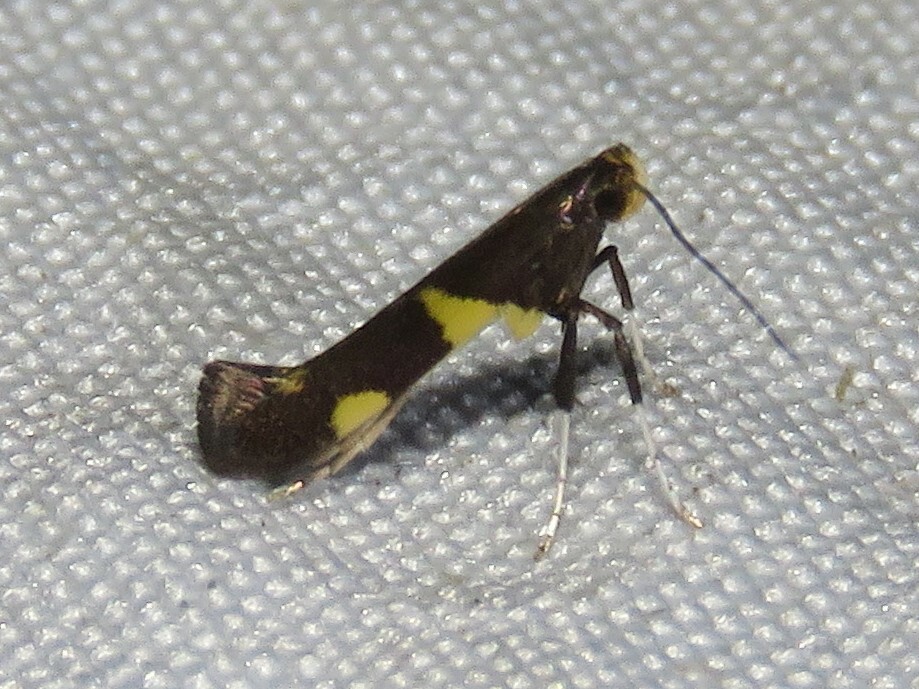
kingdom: Animalia
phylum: Arthropoda
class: Insecta
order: Lepidoptera
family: Gracillariidae
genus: Caloptilia
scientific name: Caloptilia bimaculatella
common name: Maple caloptilia moth
